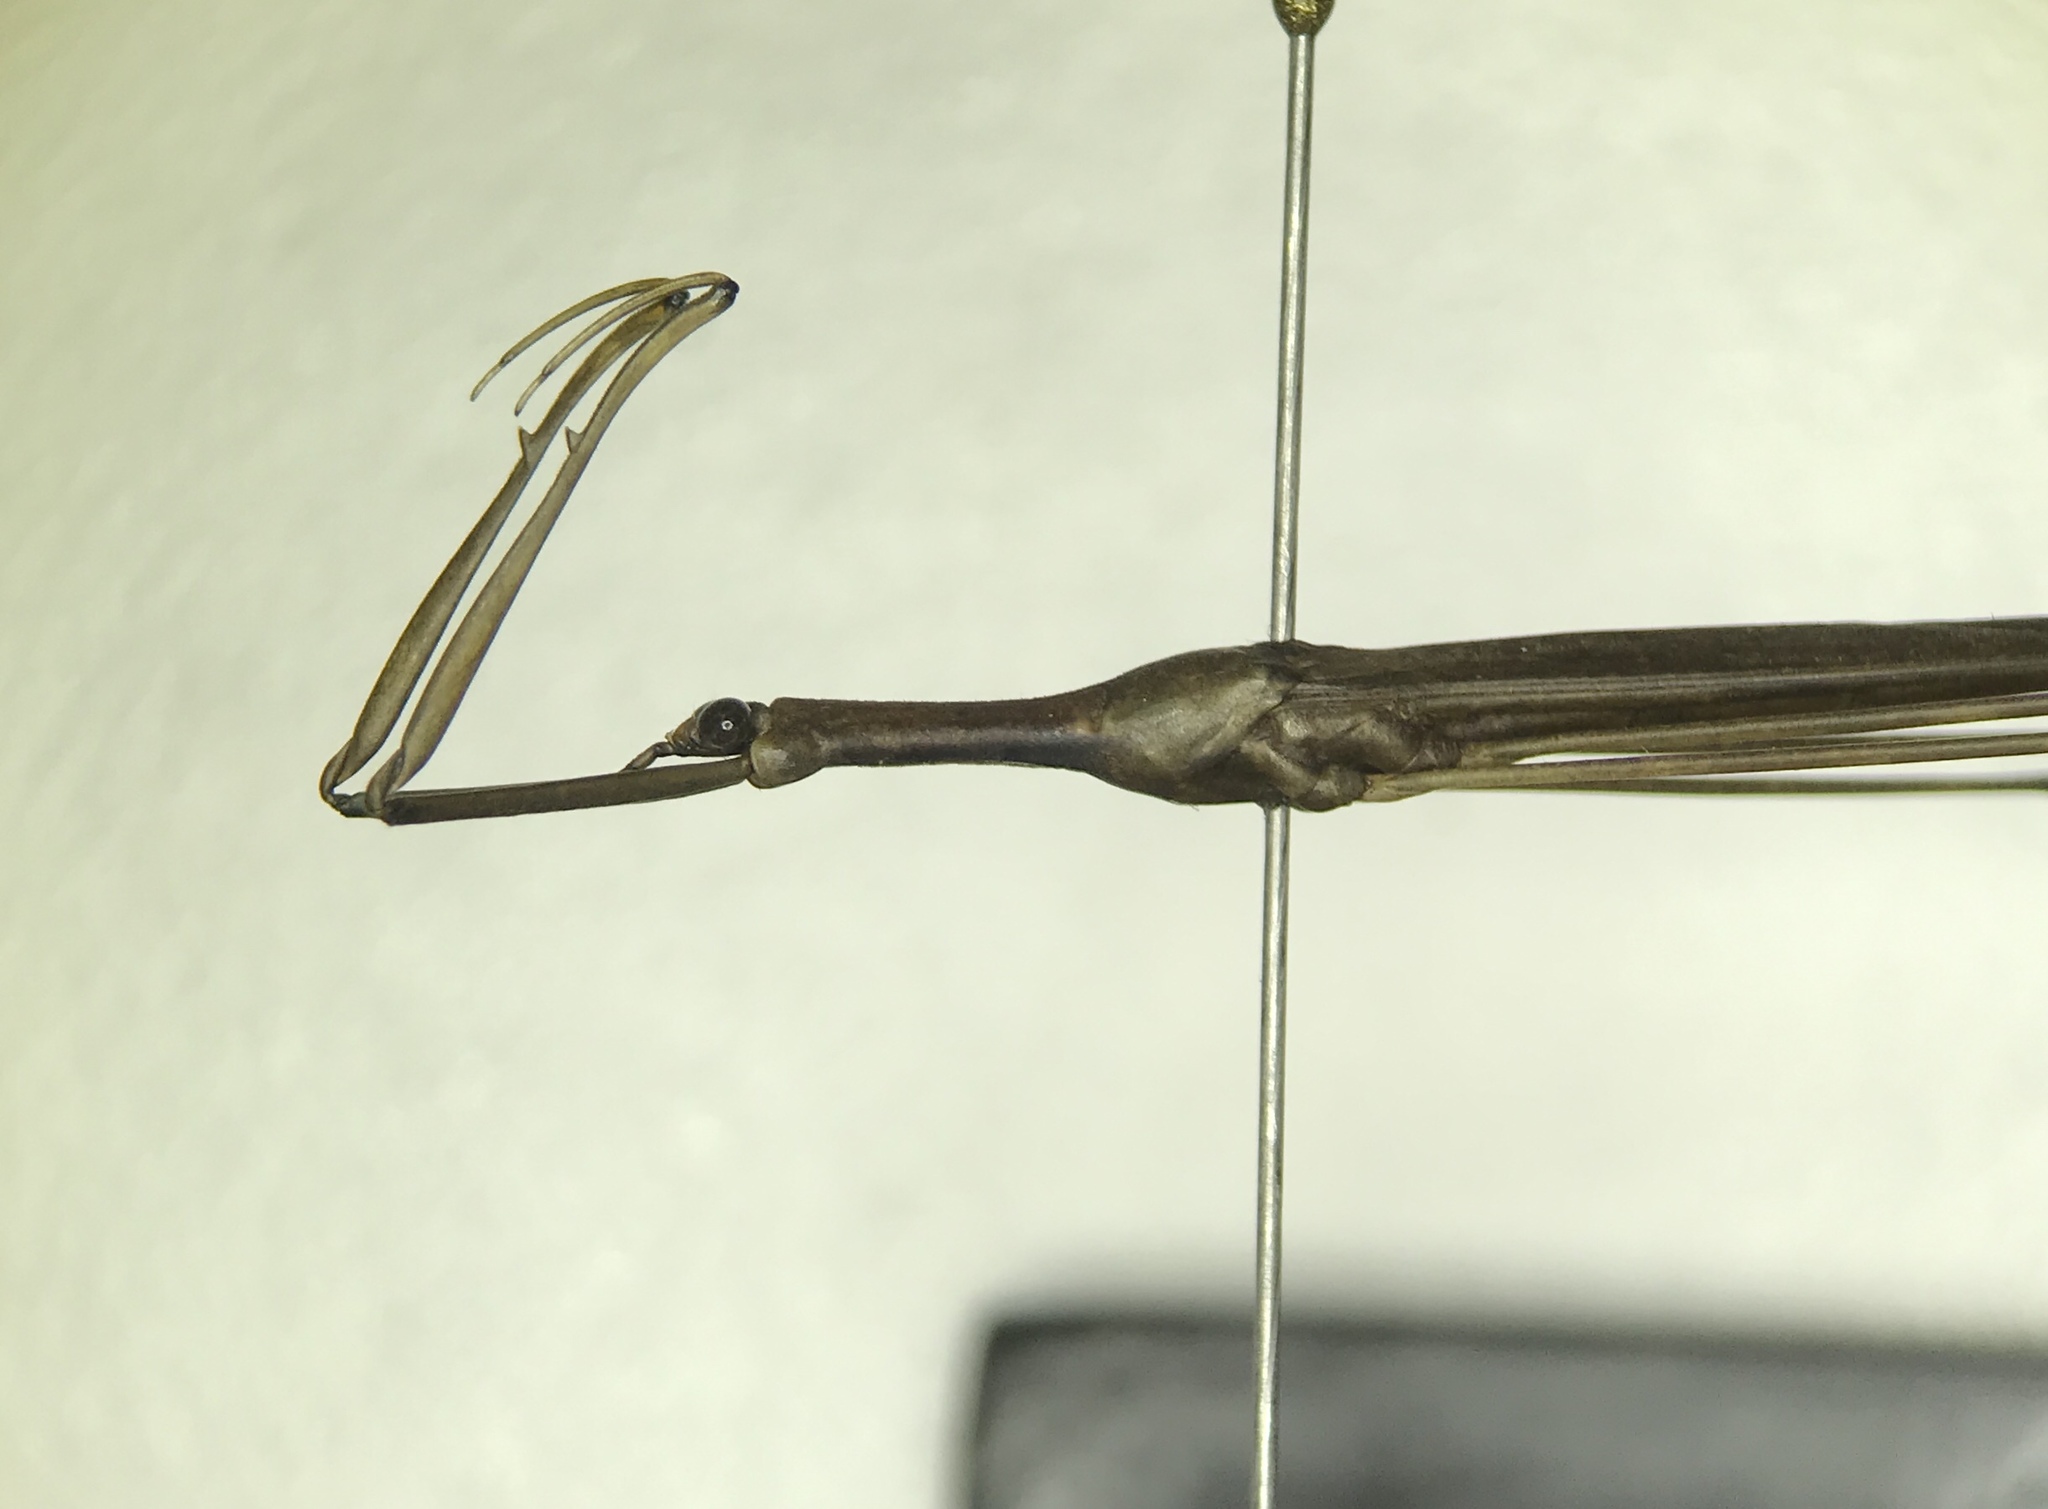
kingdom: Animalia
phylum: Arthropoda
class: Insecta
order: Hemiptera
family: Nepidae
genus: Ranatra
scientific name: Ranatra buenoi
